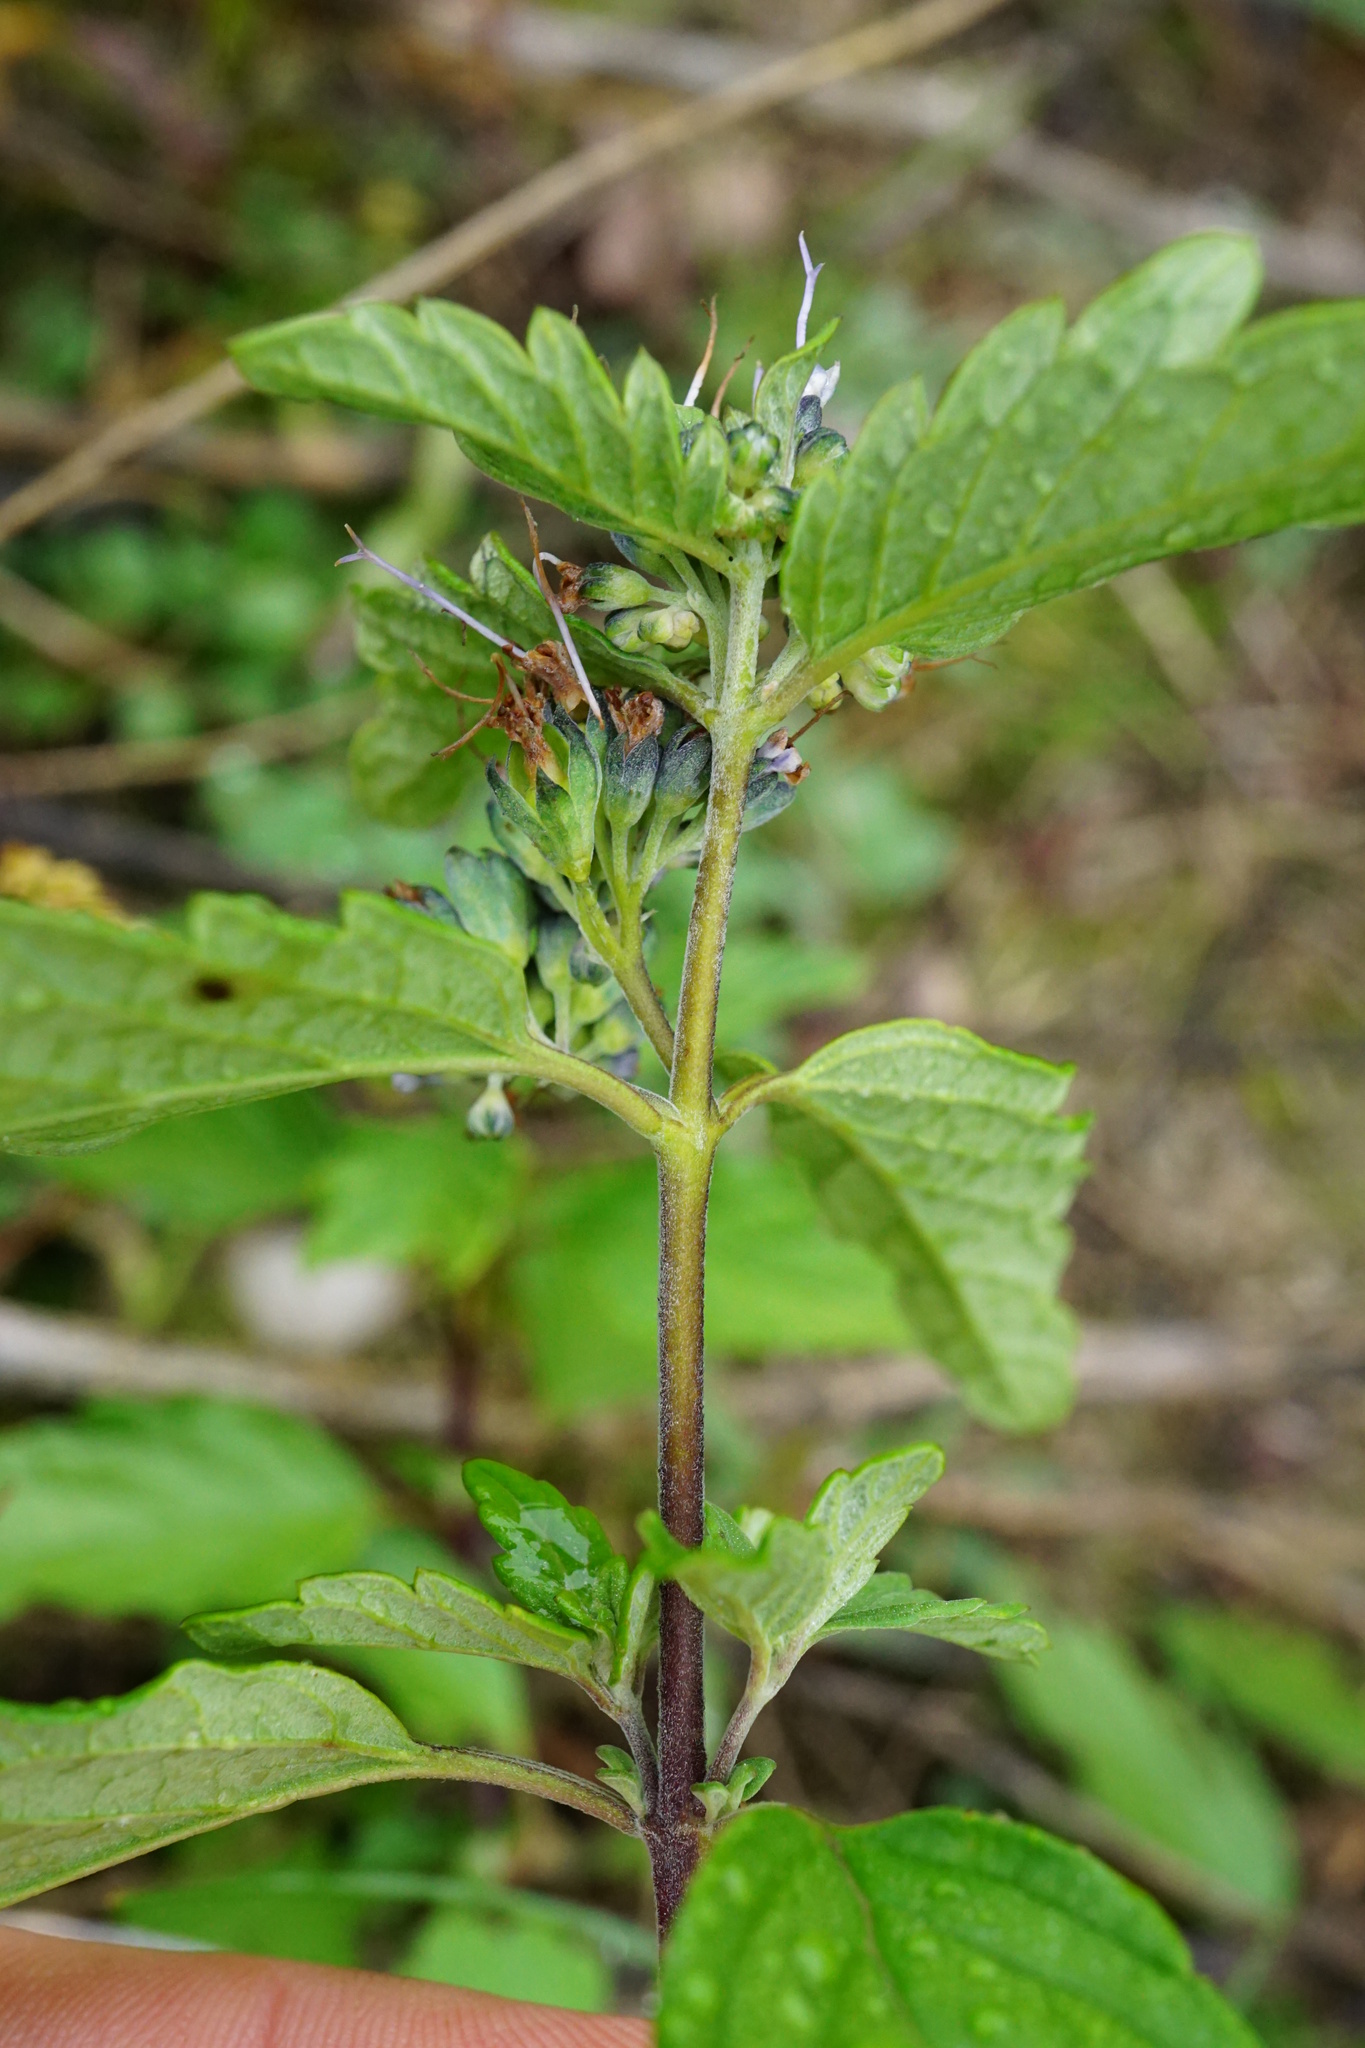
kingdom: Plantae
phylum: Tracheophyta
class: Magnoliopsida
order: Lamiales
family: Lamiaceae
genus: Caryopteris
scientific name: Caryopteris clandonensis
